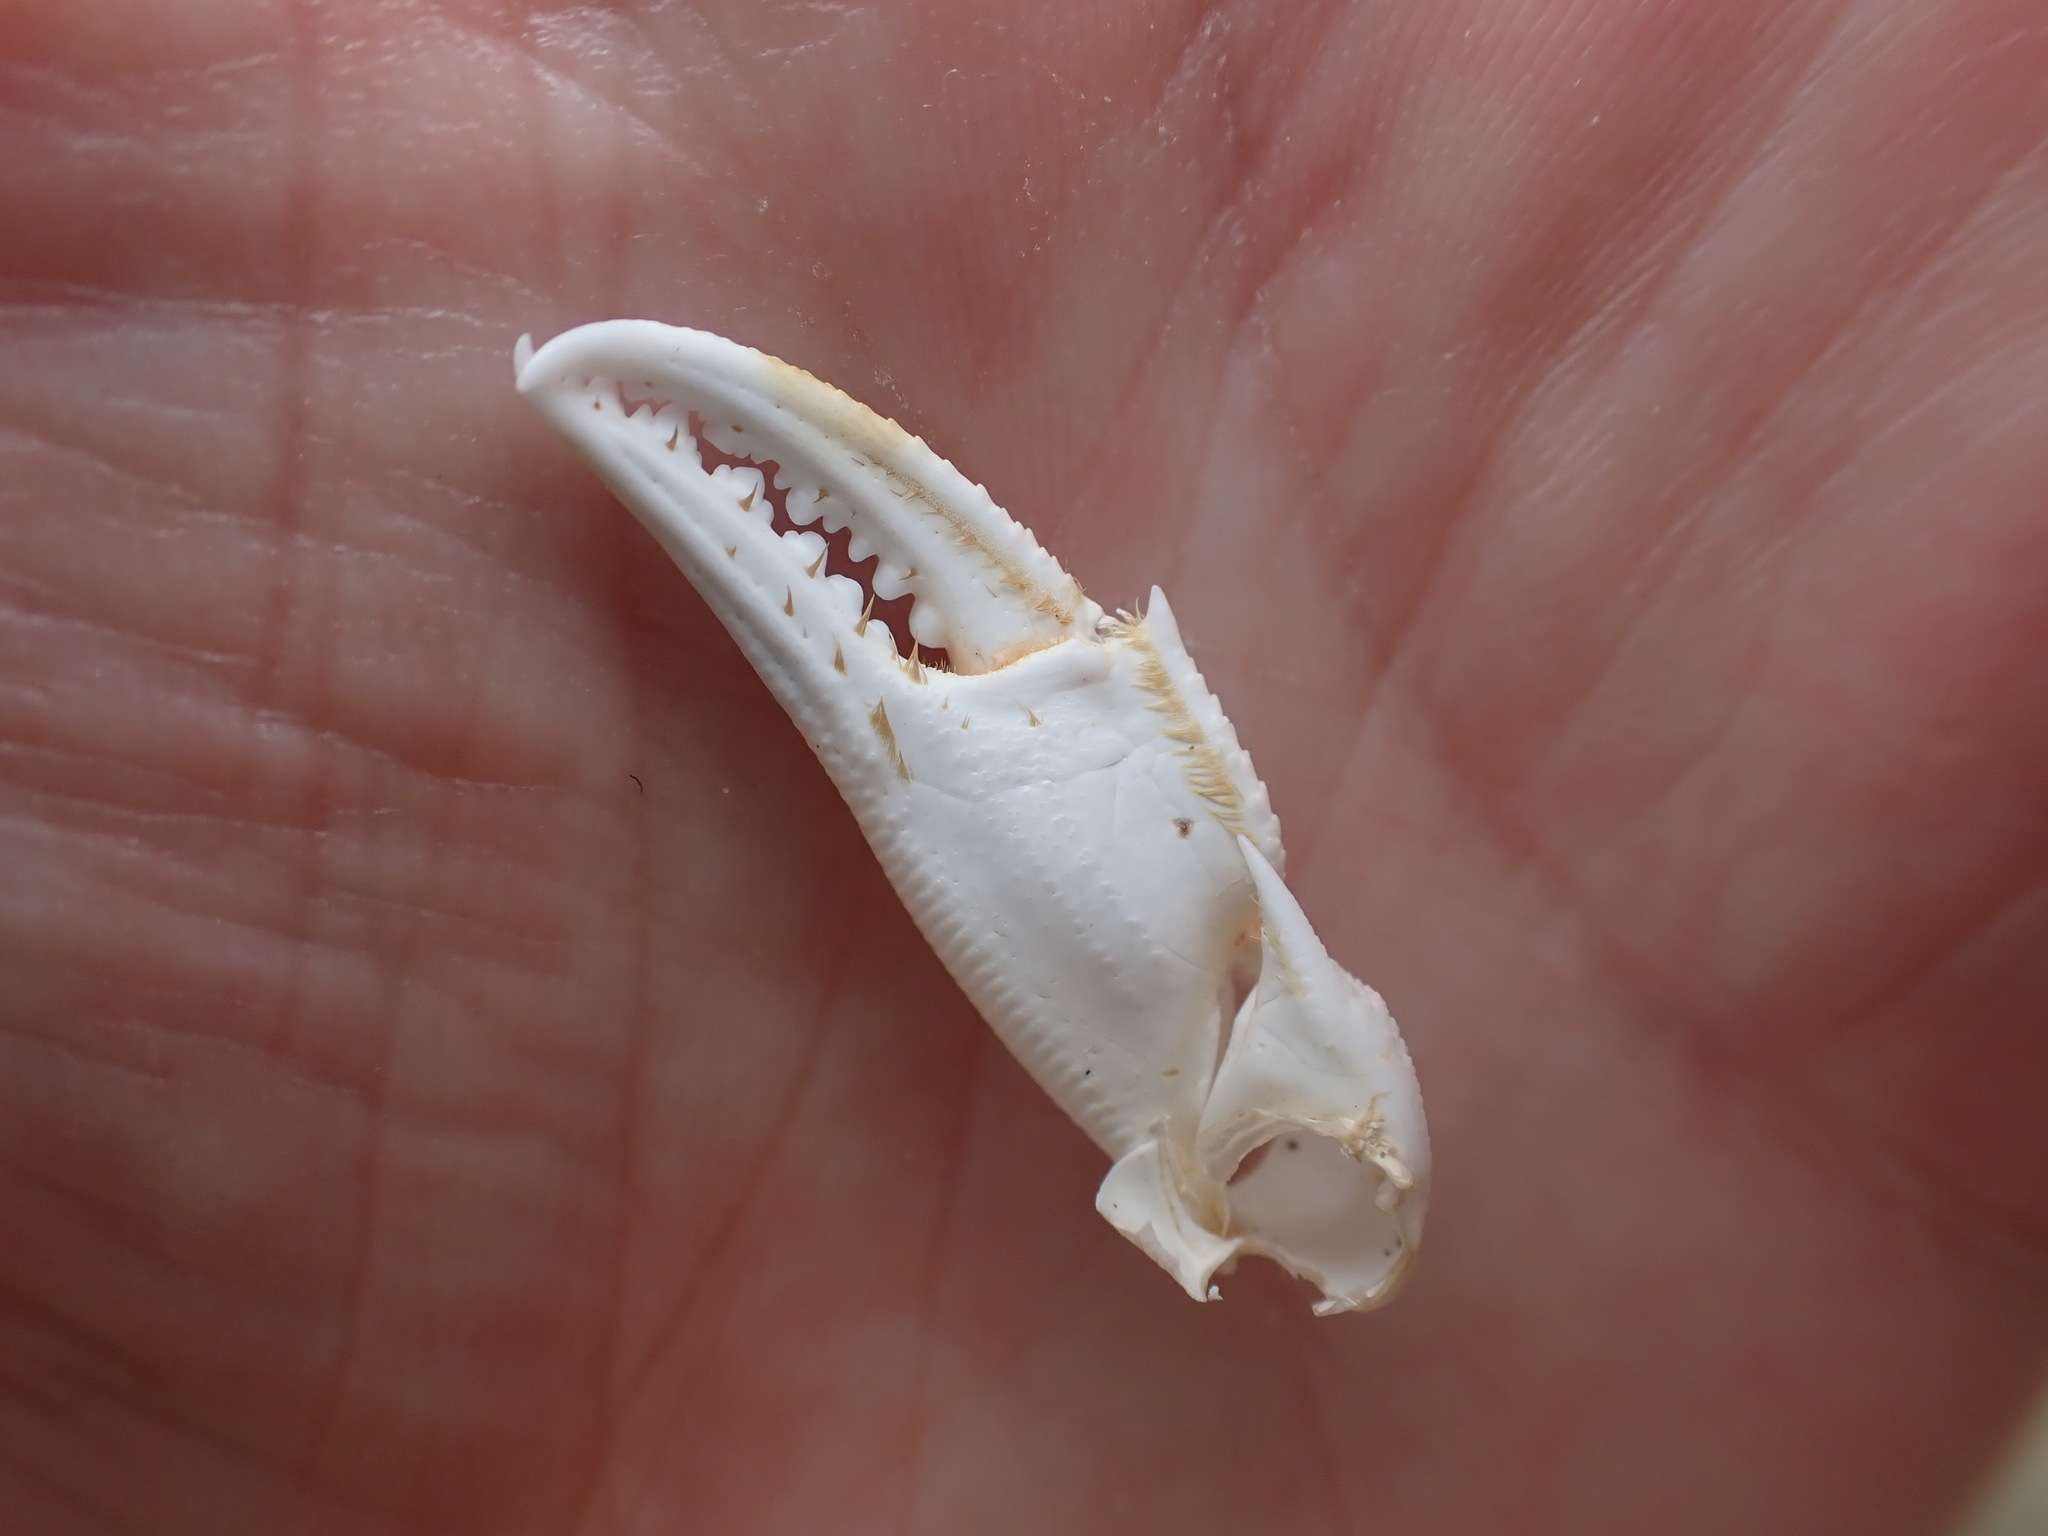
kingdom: Animalia
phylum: Arthropoda
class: Malacostraca
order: Decapoda
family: Ovalipidae
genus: Ovalipes
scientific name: Ovalipes catharus
